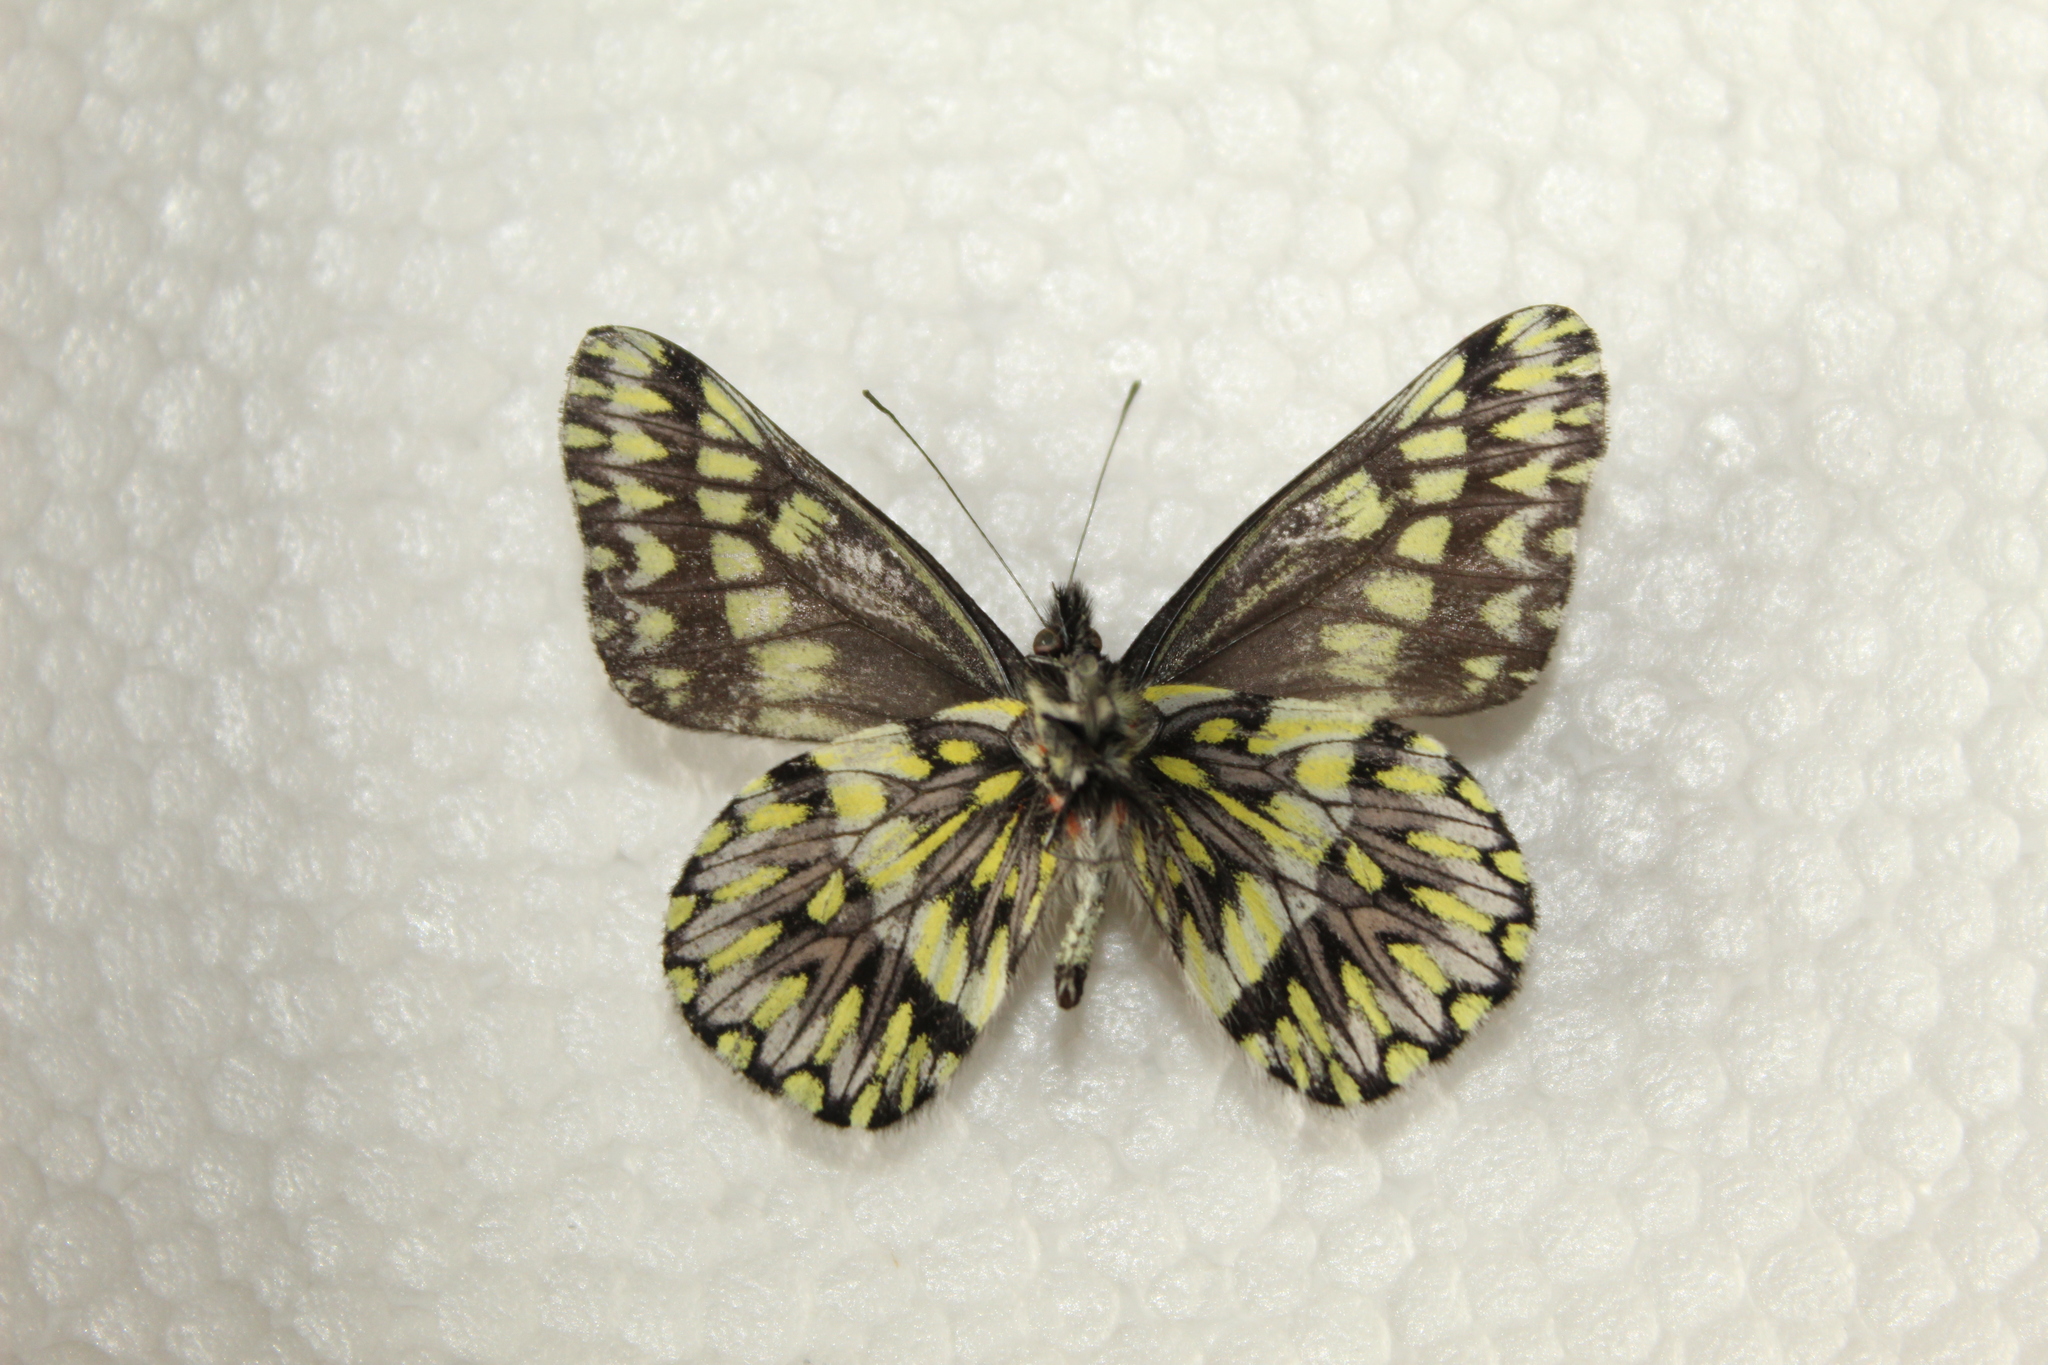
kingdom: Animalia
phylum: Arthropoda
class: Insecta
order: Lepidoptera
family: Pieridae
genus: Catasticta
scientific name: Catasticta semiramis
